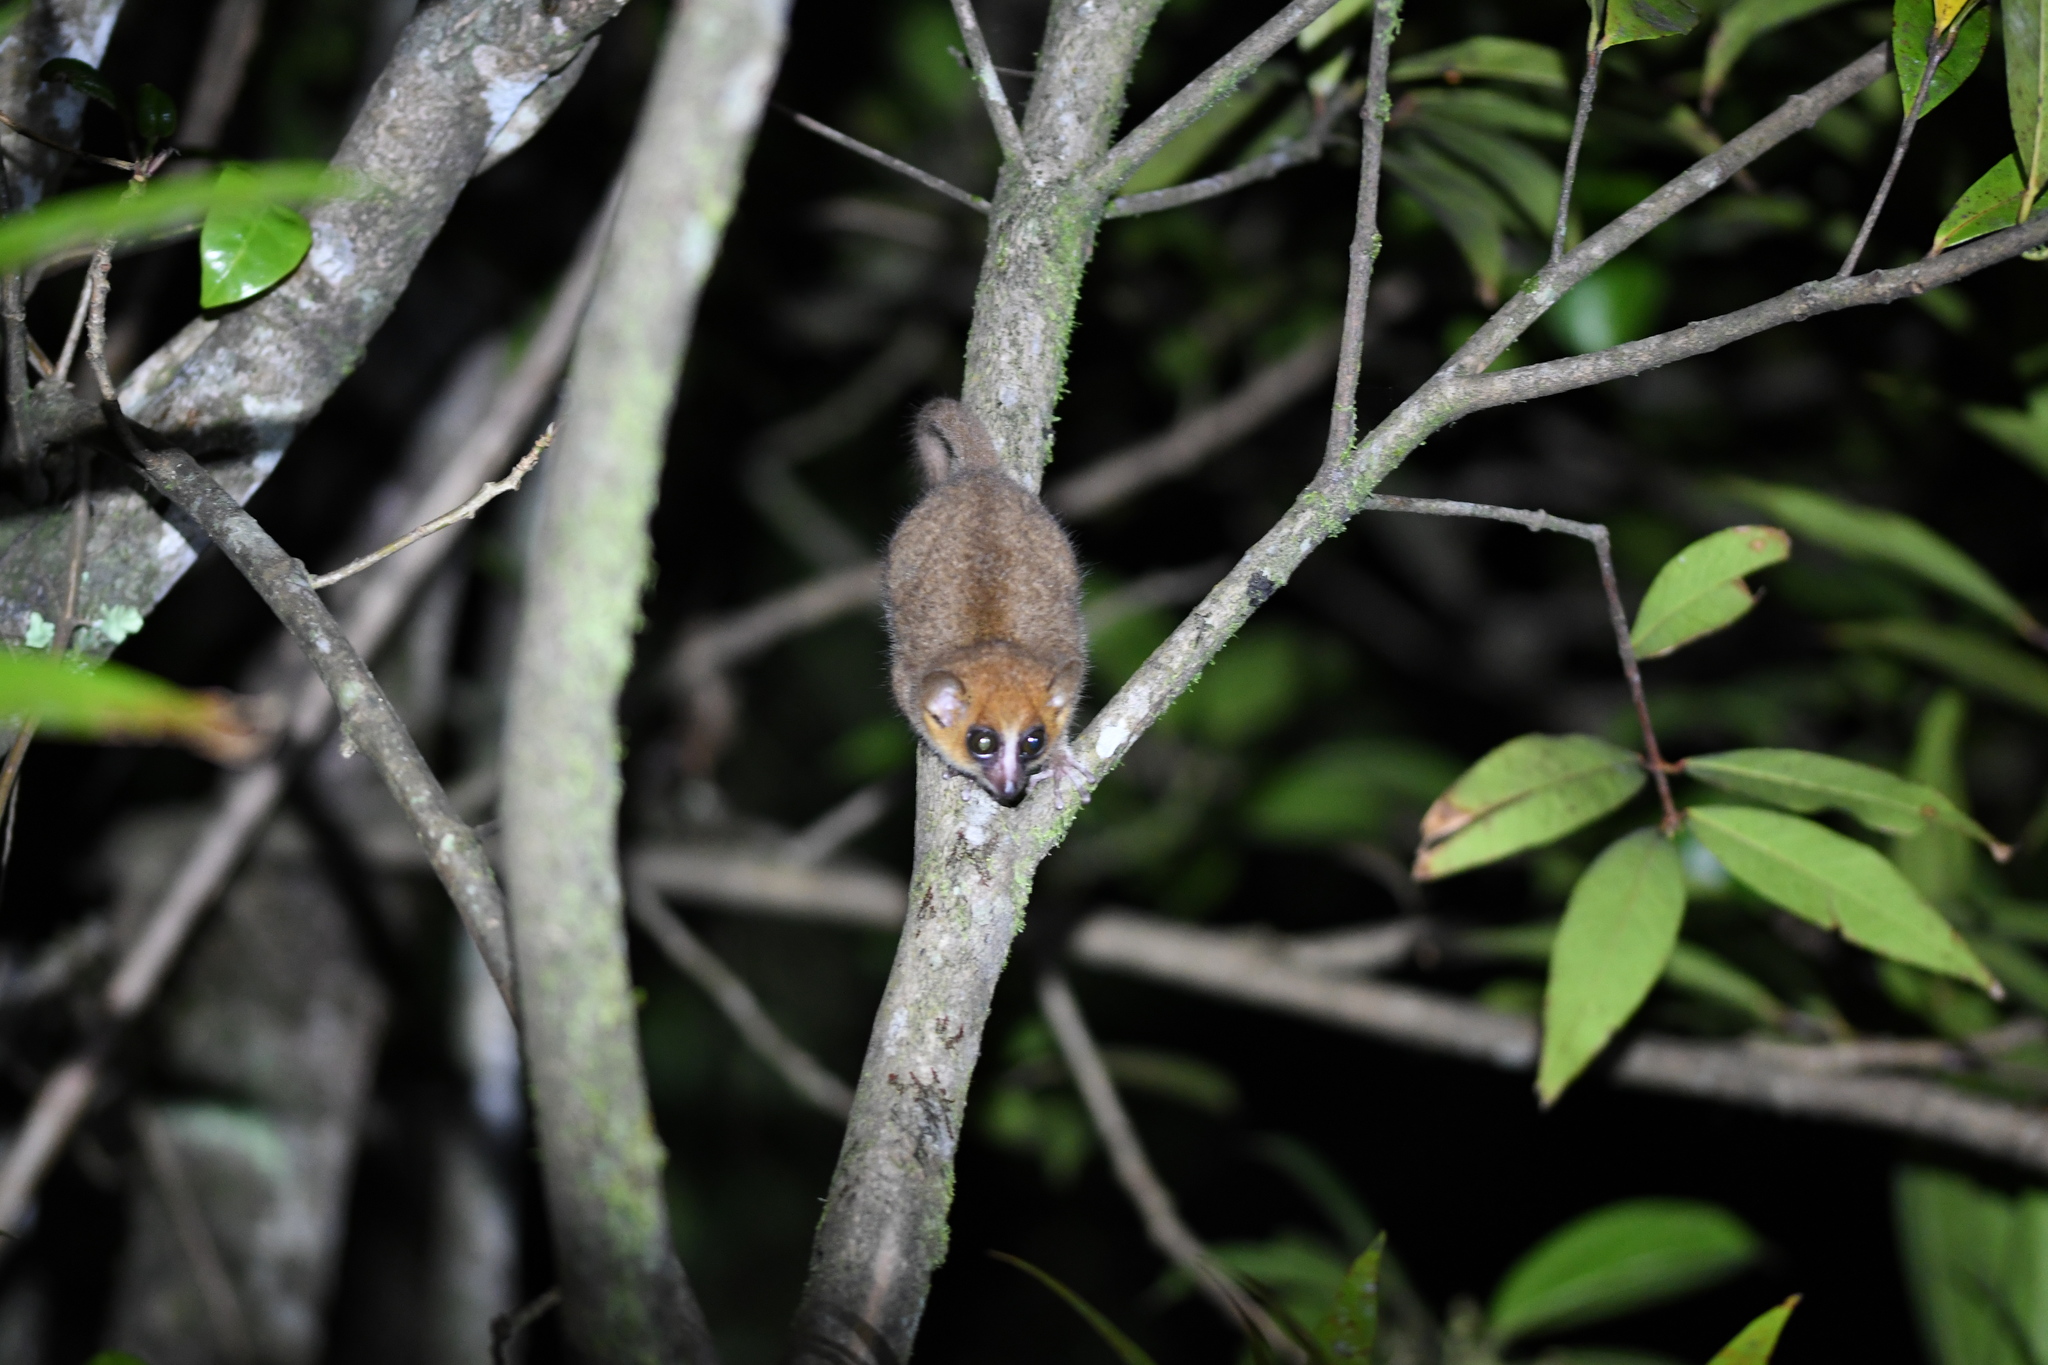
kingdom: Animalia
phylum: Chordata
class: Mammalia
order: Primates
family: Cheirogaleidae
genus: Microcebus
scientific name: Microcebus rufus
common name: Brown mouse lemur
